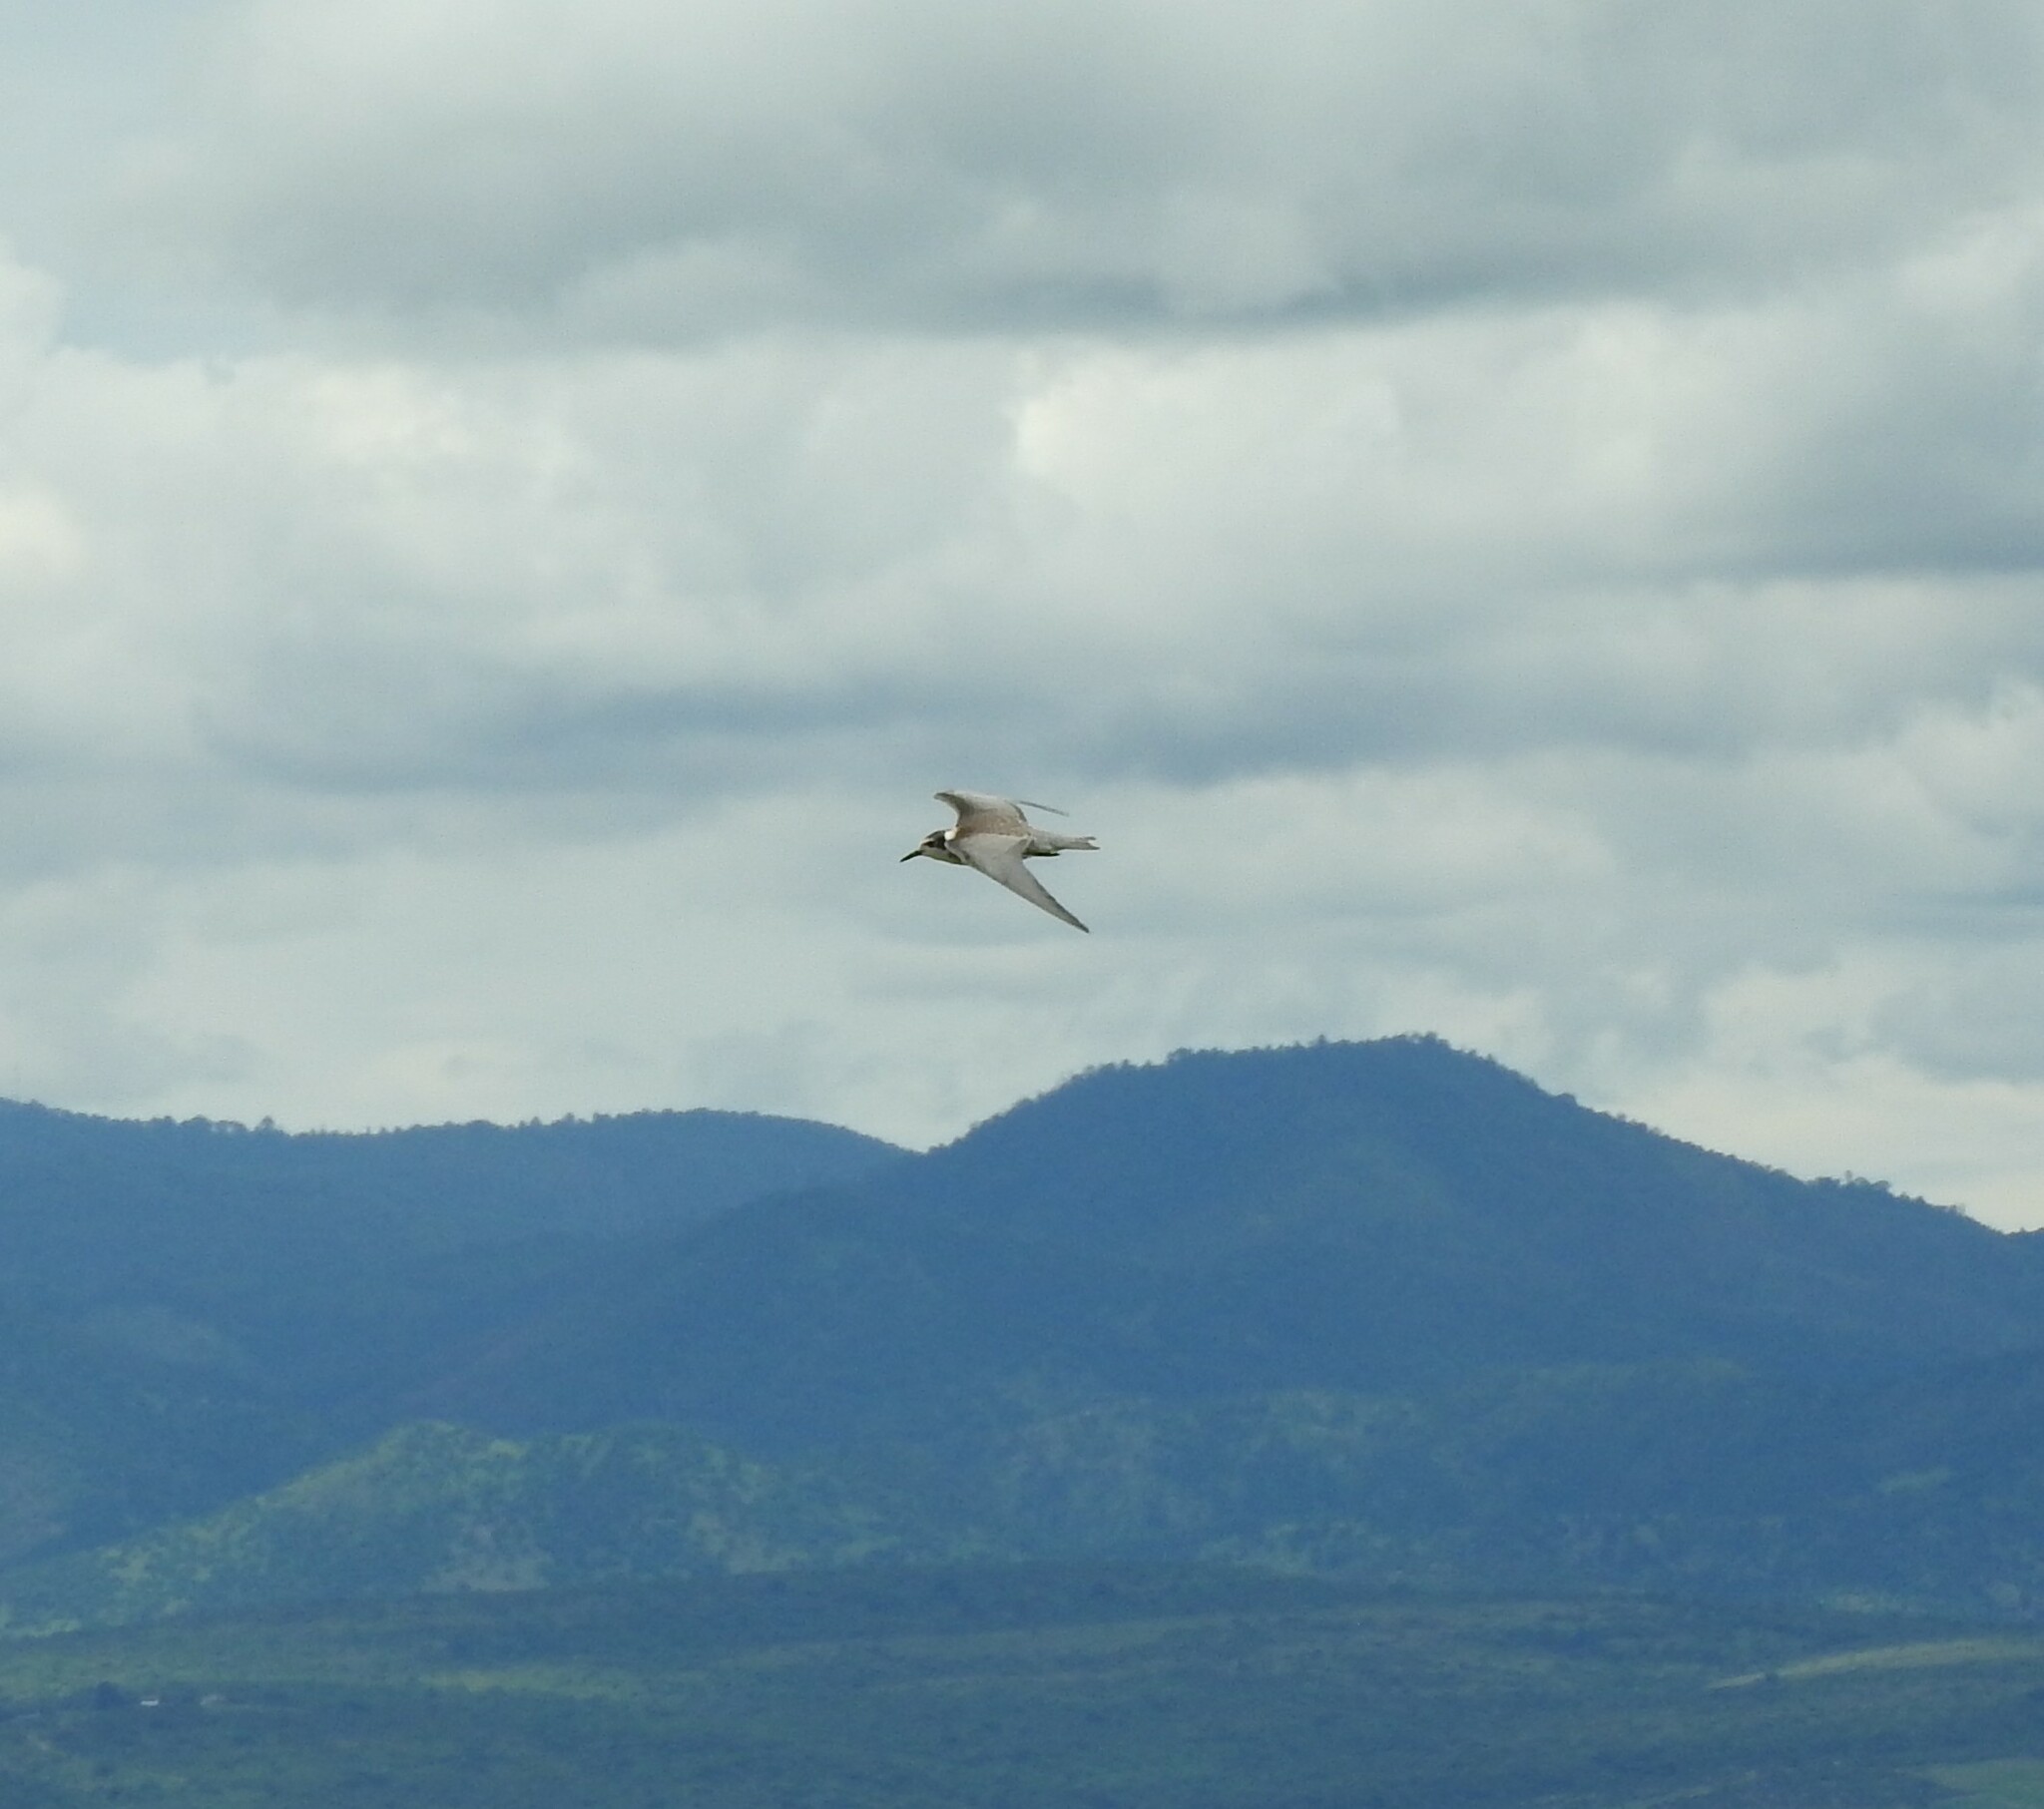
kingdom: Animalia
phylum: Chordata
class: Aves
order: Charadriiformes
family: Laridae
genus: Chlidonias
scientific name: Chlidonias niger
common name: Black tern
